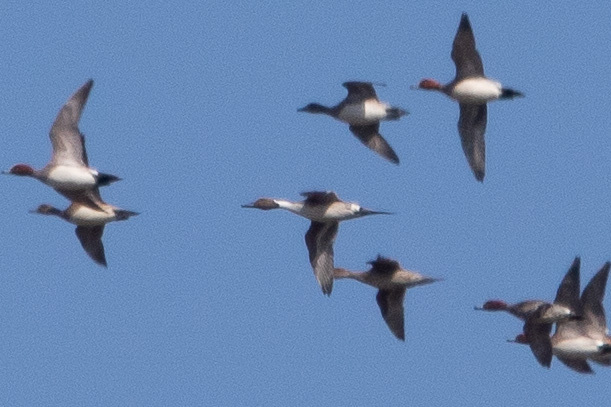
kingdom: Animalia
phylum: Chordata
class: Aves
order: Anseriformes
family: Anatidae
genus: Anas
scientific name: Anas acuta
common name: Northern pintail
